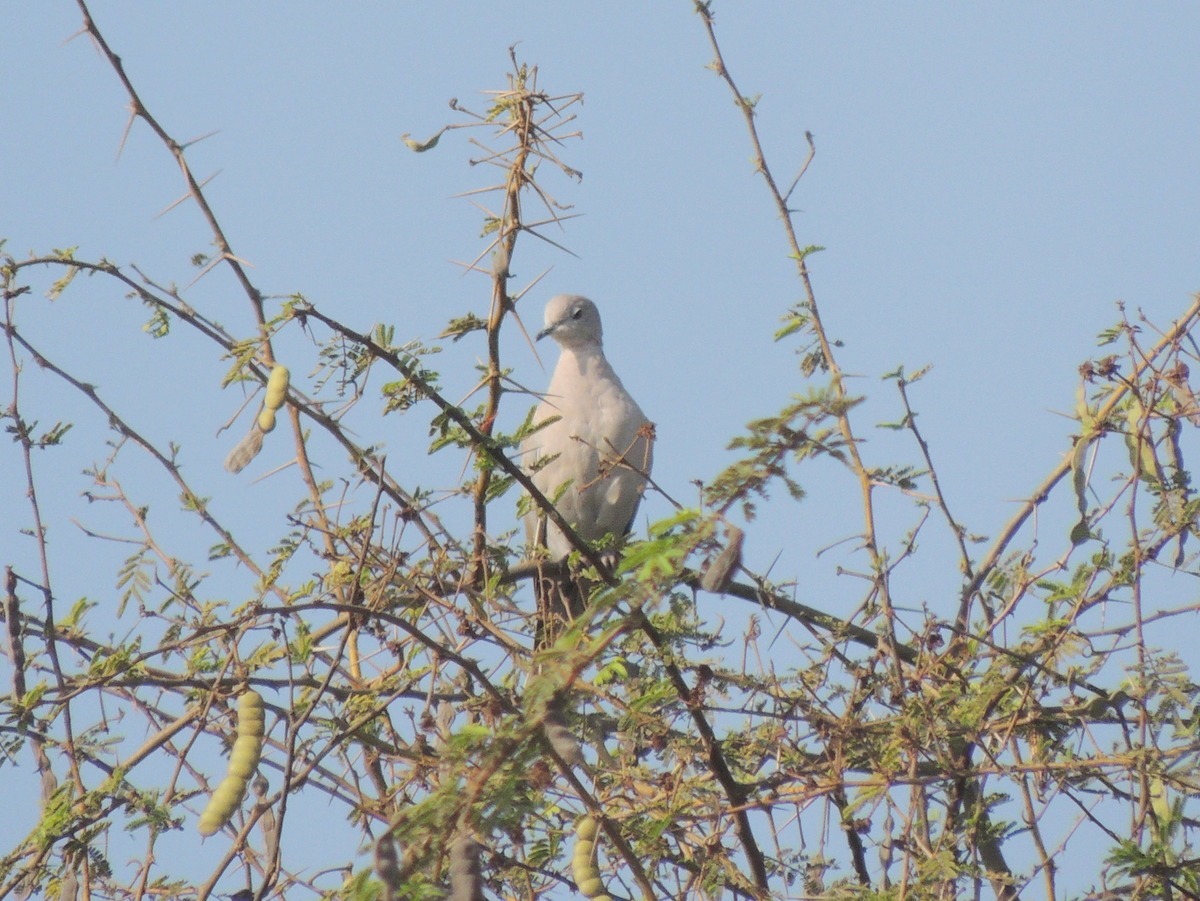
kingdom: Animalia
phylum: Chordata
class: Aves
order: Columbiformes
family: Columbidae
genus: Streptopelia
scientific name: Streptopelia decaocto
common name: Eurasian collared dove
